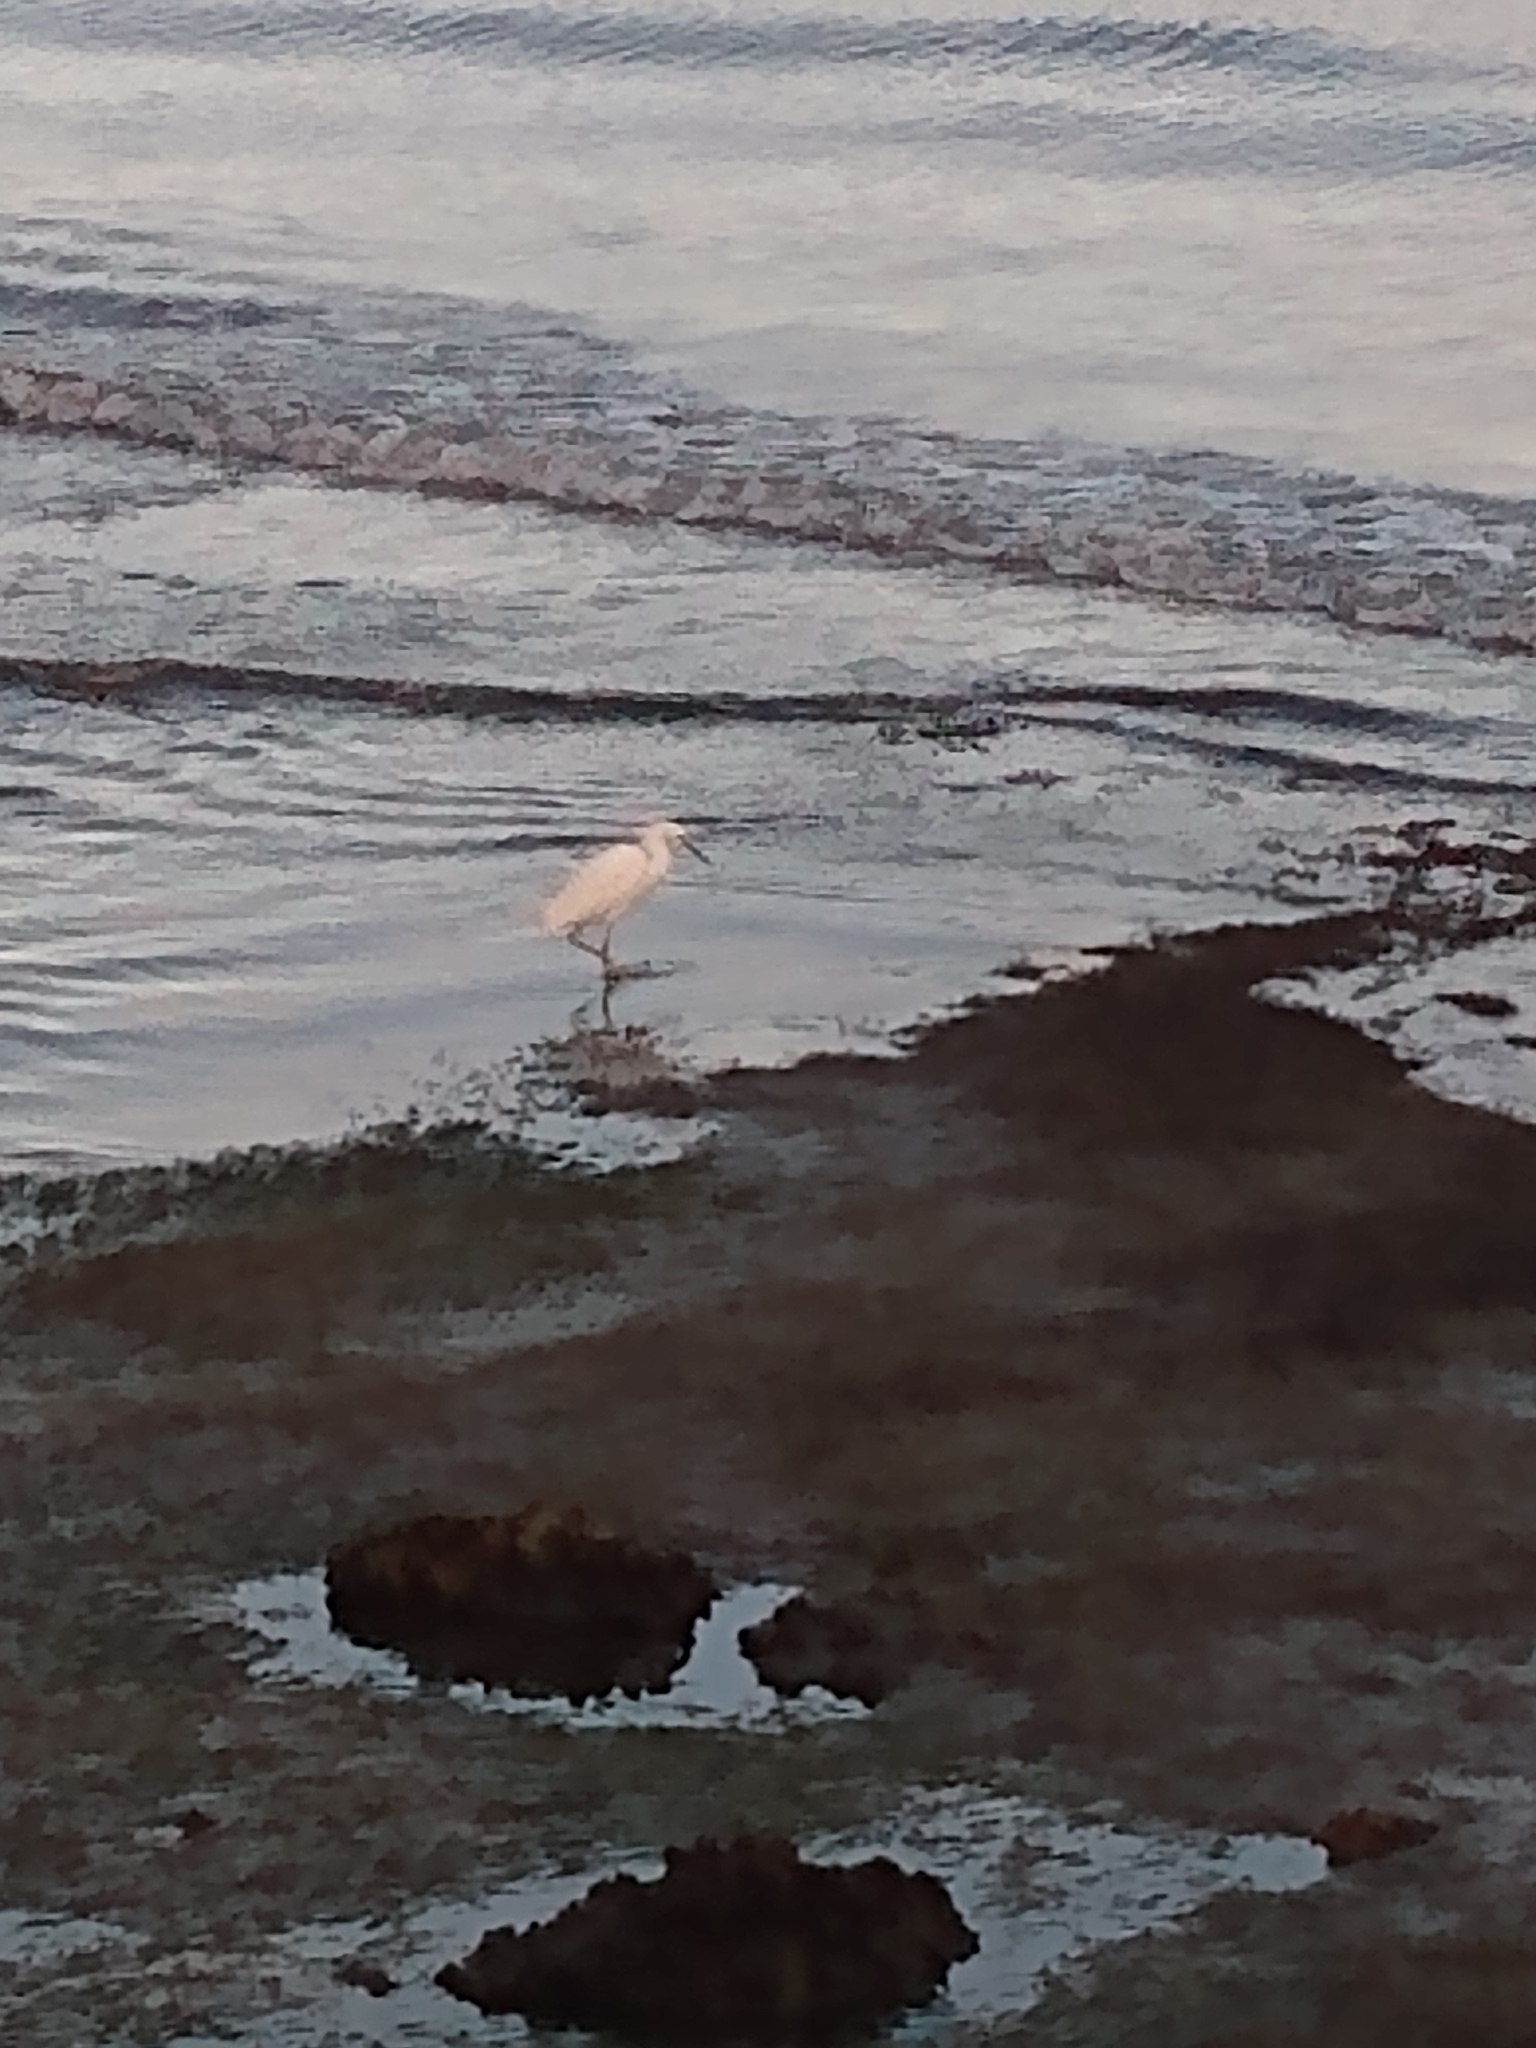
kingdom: Animalia
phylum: Chordata
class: Aves
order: Pelecaniformes
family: Ardeidae
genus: Egretta
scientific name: Egretta thula
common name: Snowy egret
